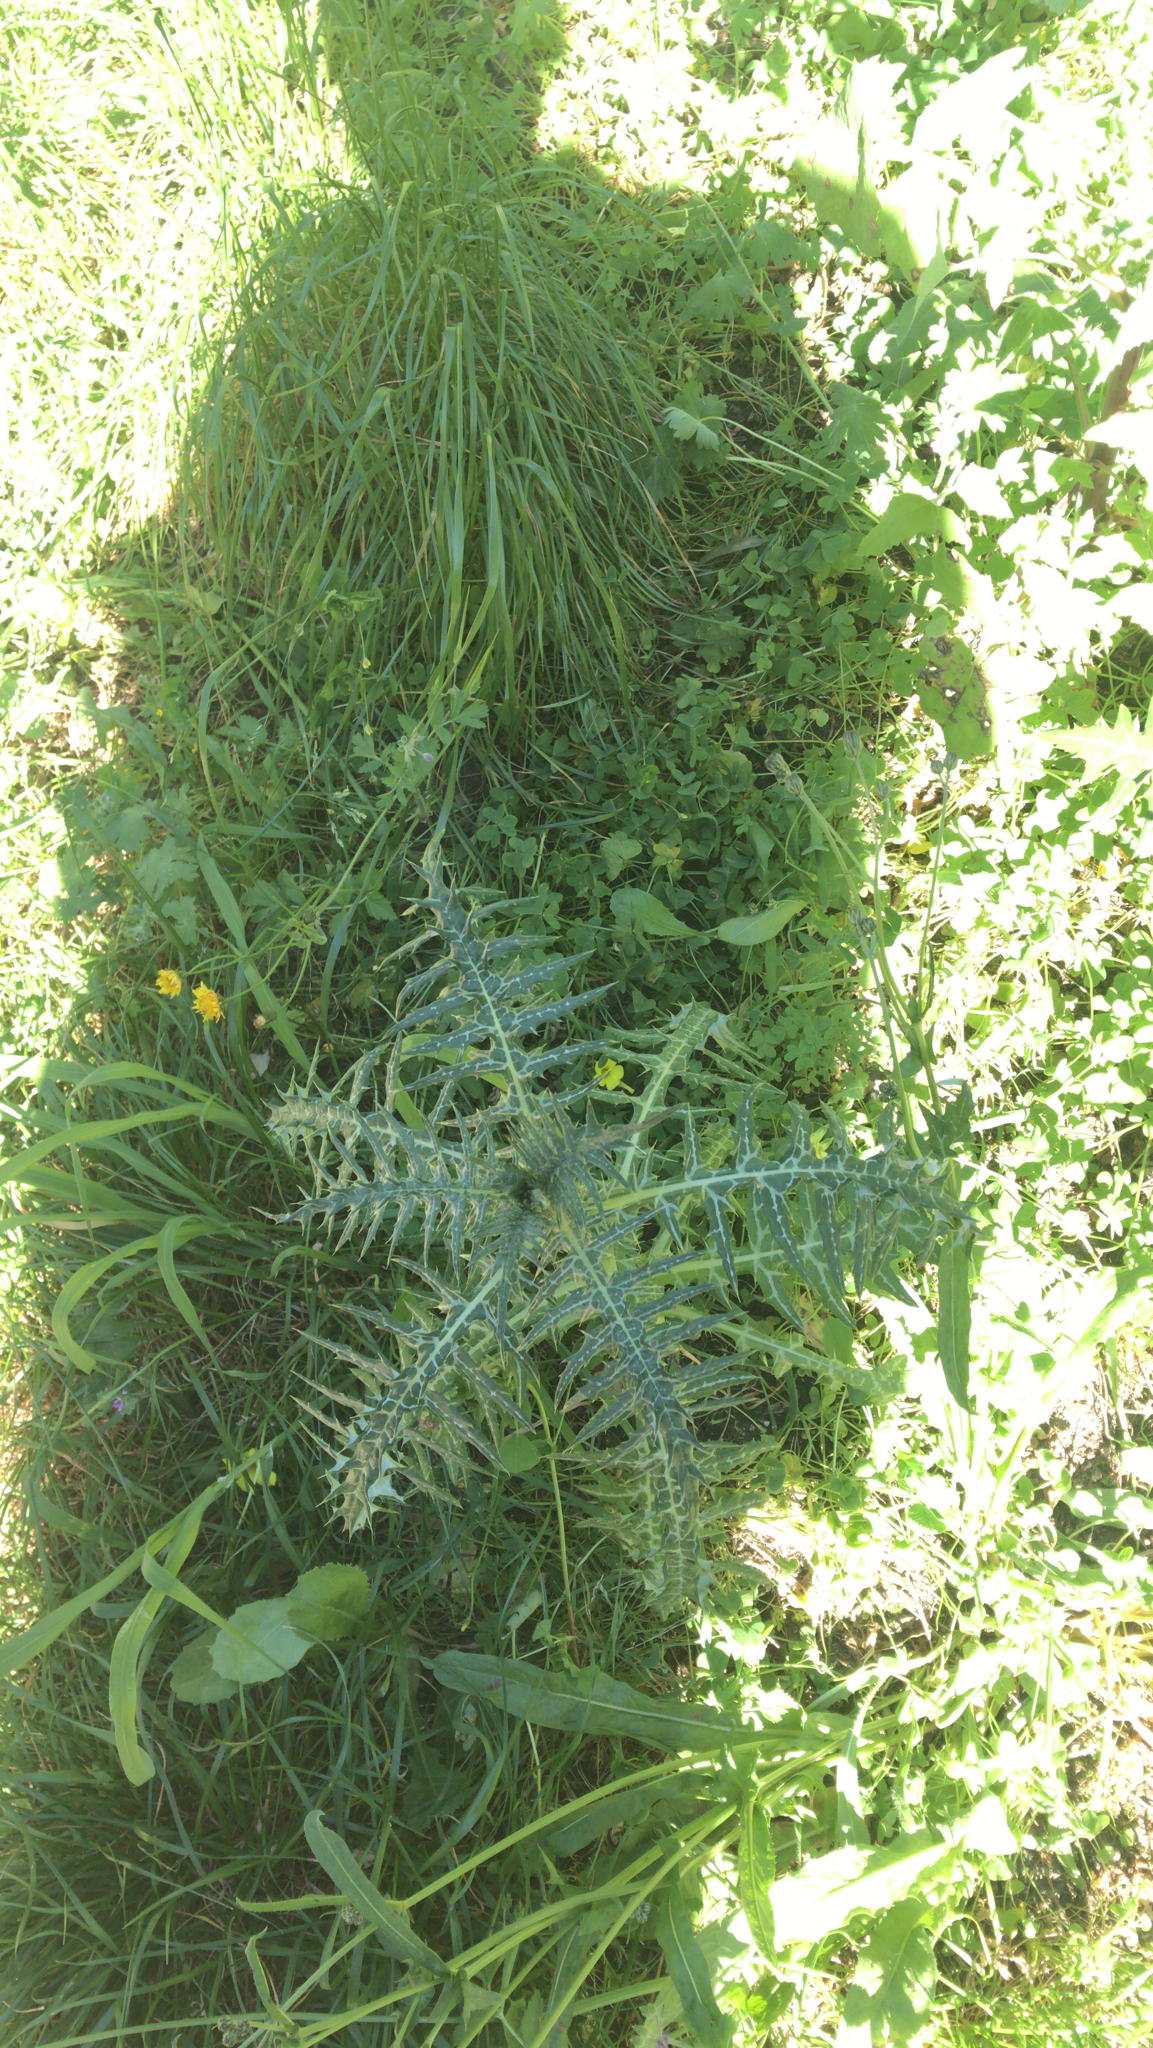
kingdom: Plantae
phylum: Tracheophyta
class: Magnoliopsida
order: Asterales
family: Asteraceae
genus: Galactites
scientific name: Galactites tomentosa
